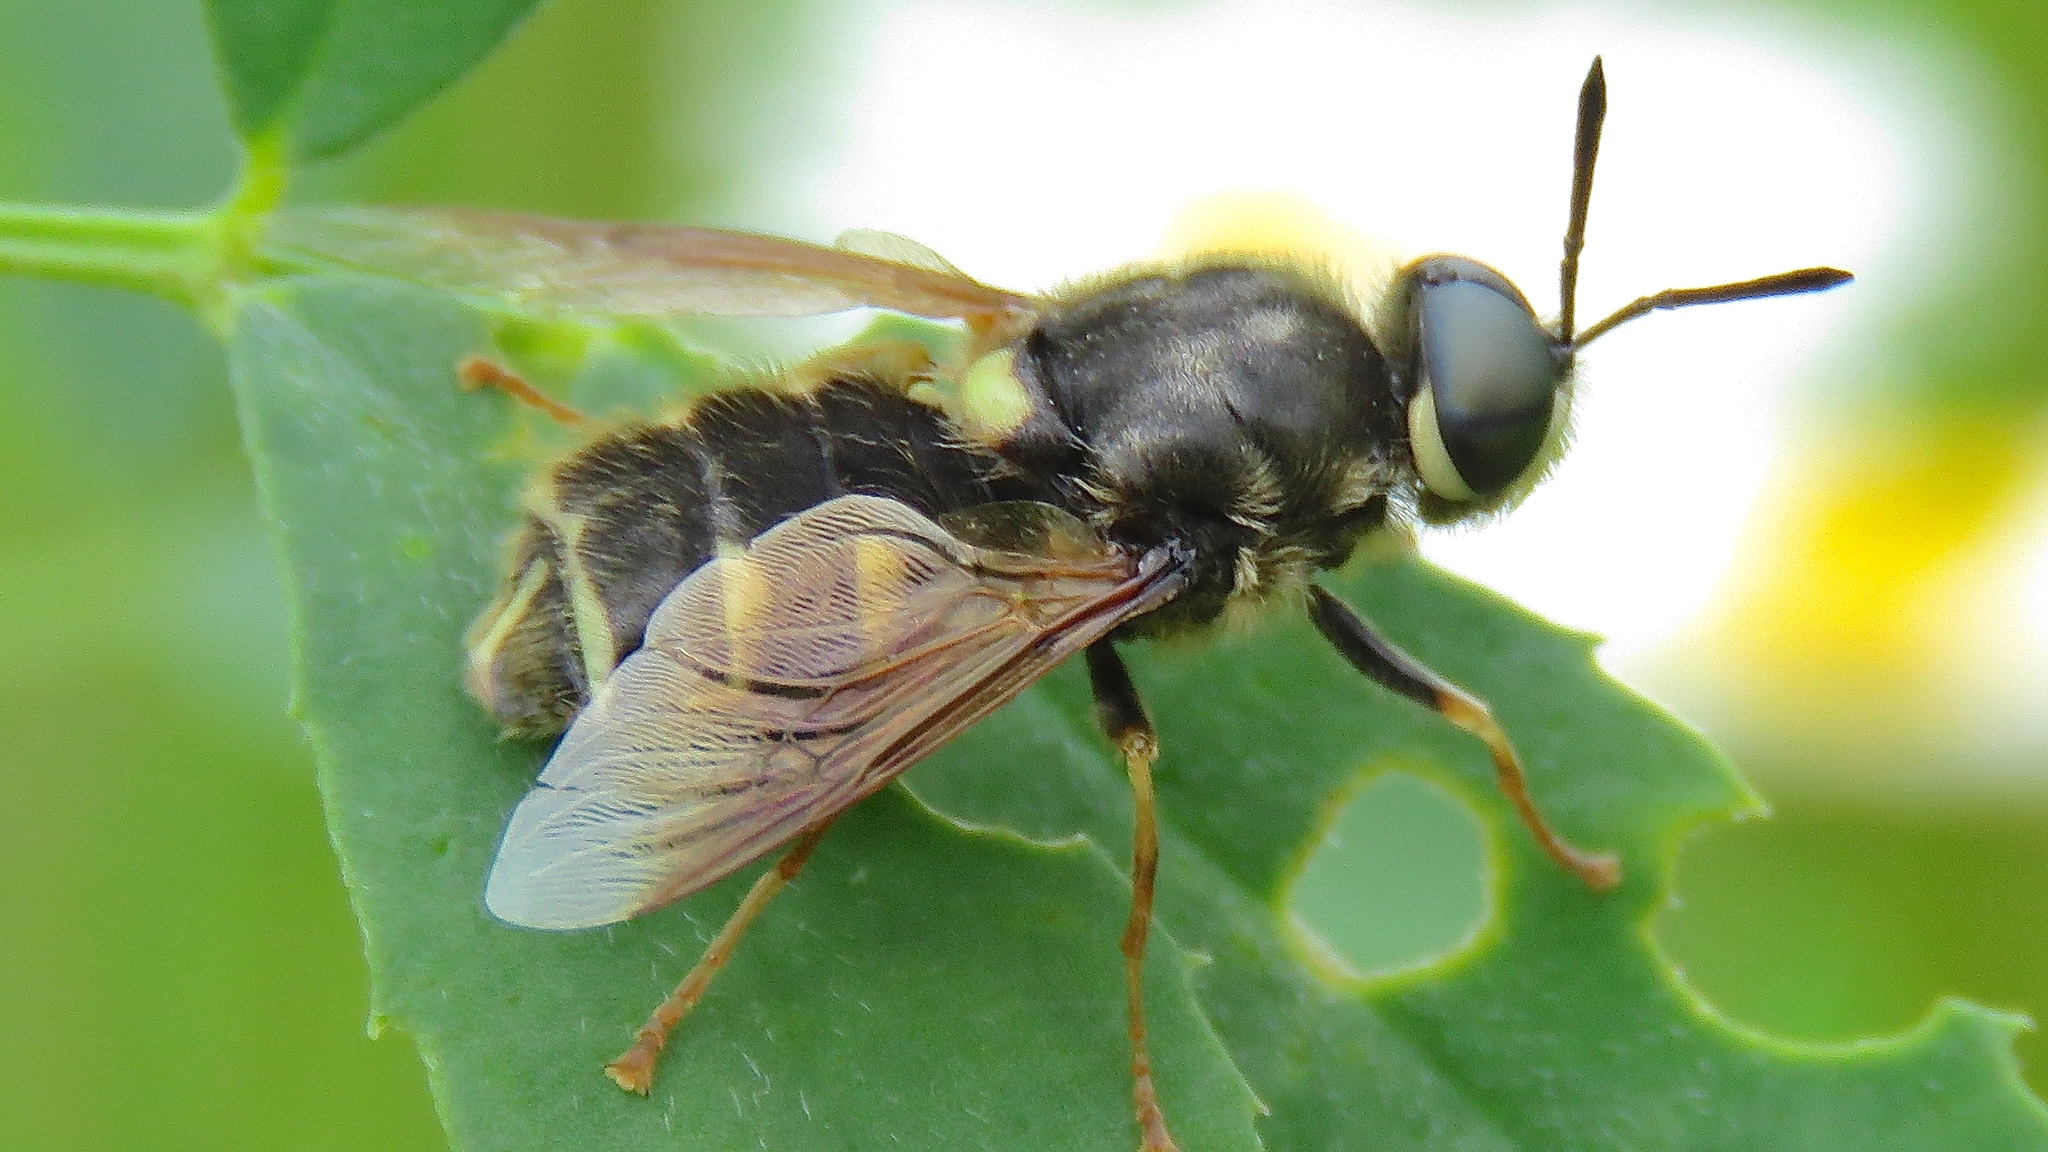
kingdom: Animalia
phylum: Arthropoda
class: Insecta
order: Diptera
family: Stratiomyidae
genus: Stratiomys
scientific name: Stratiomys badia
